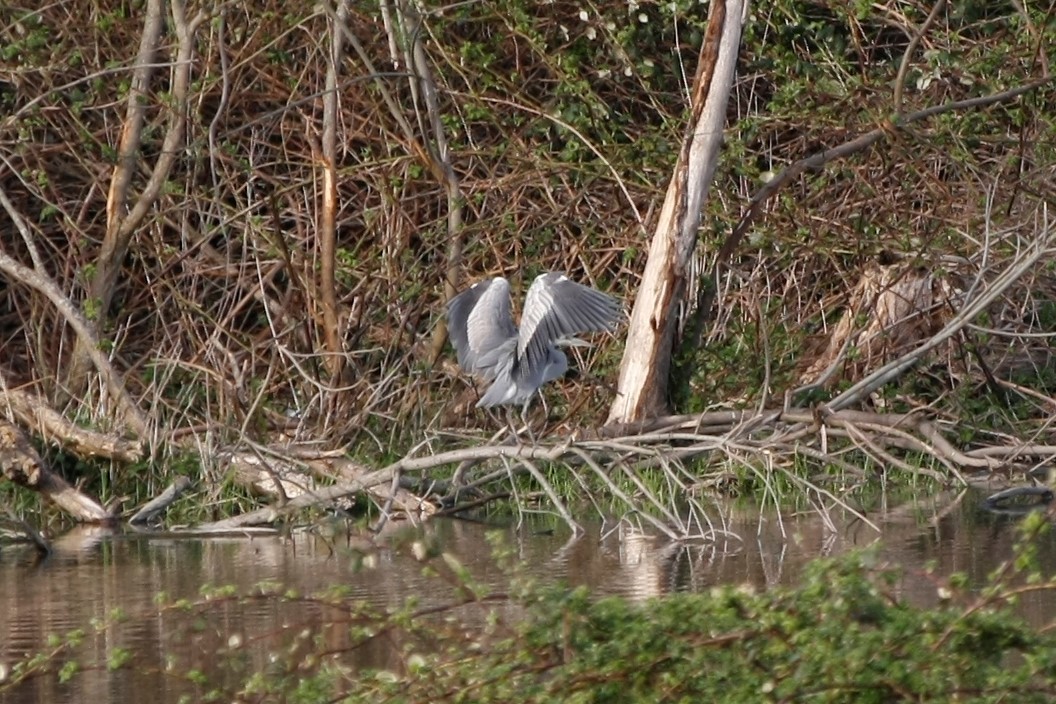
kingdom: Animalia
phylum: Chordata
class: Aves
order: Pelecaniformes
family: Ardeidae
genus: Ardea
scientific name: Ardea cinerea
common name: Grey heron
